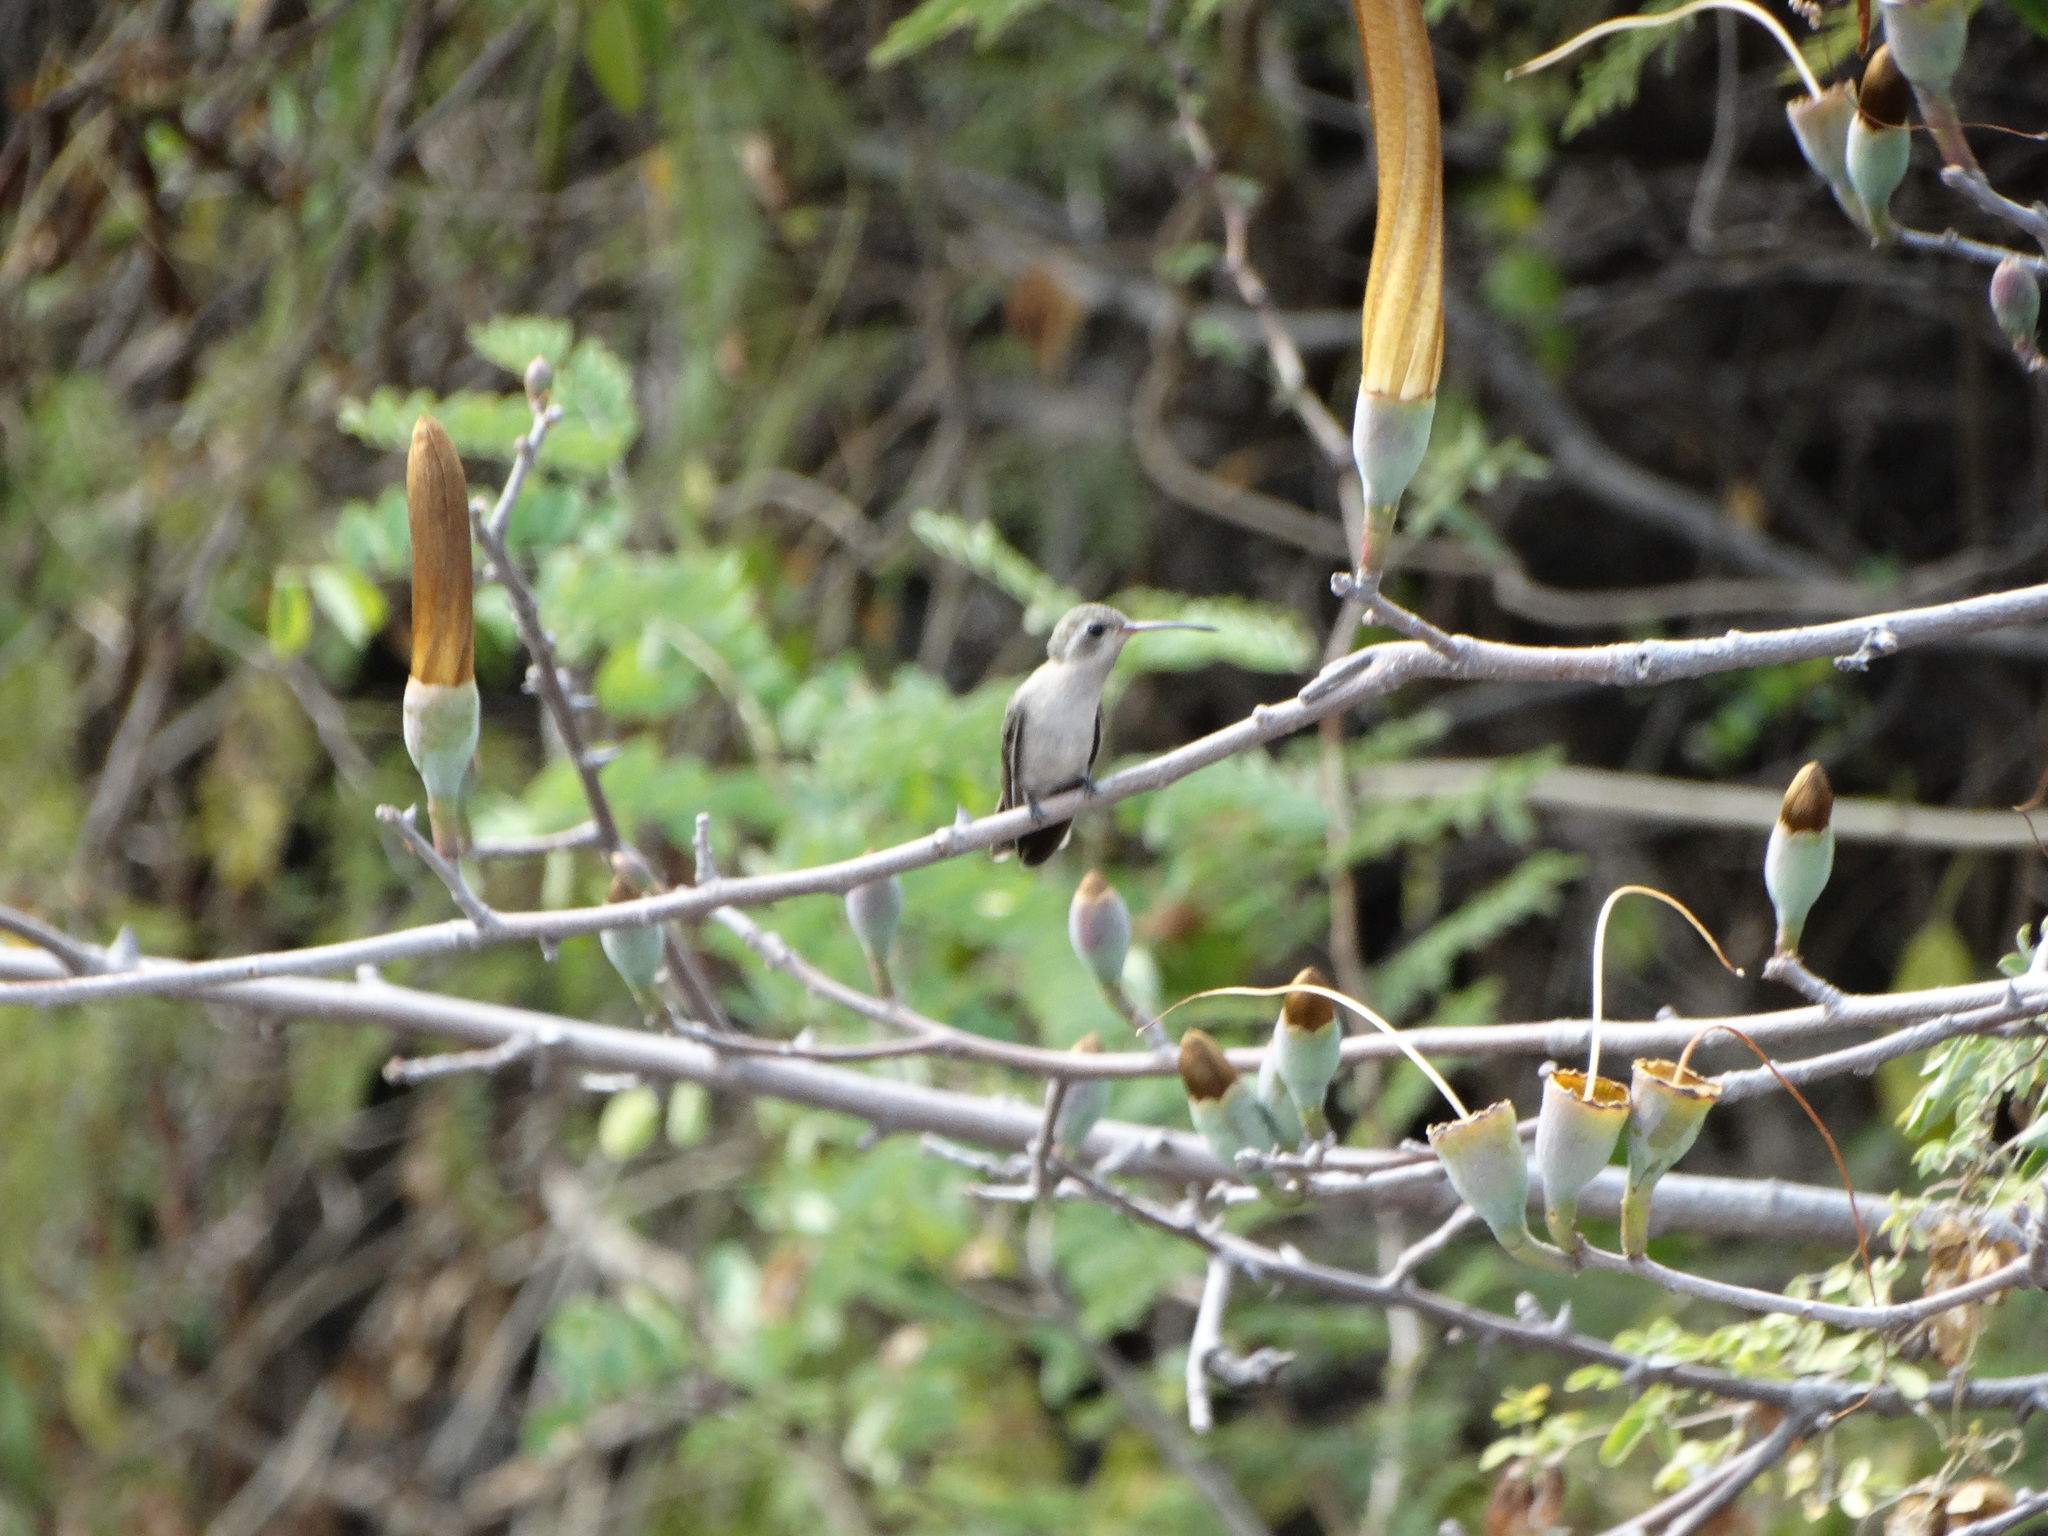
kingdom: Animalia
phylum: Chordata
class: Aves
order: Apodiformes
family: Trochilidae
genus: Phaeoptila
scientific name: Phaeoptila sordida
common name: Dusky hummingbird
